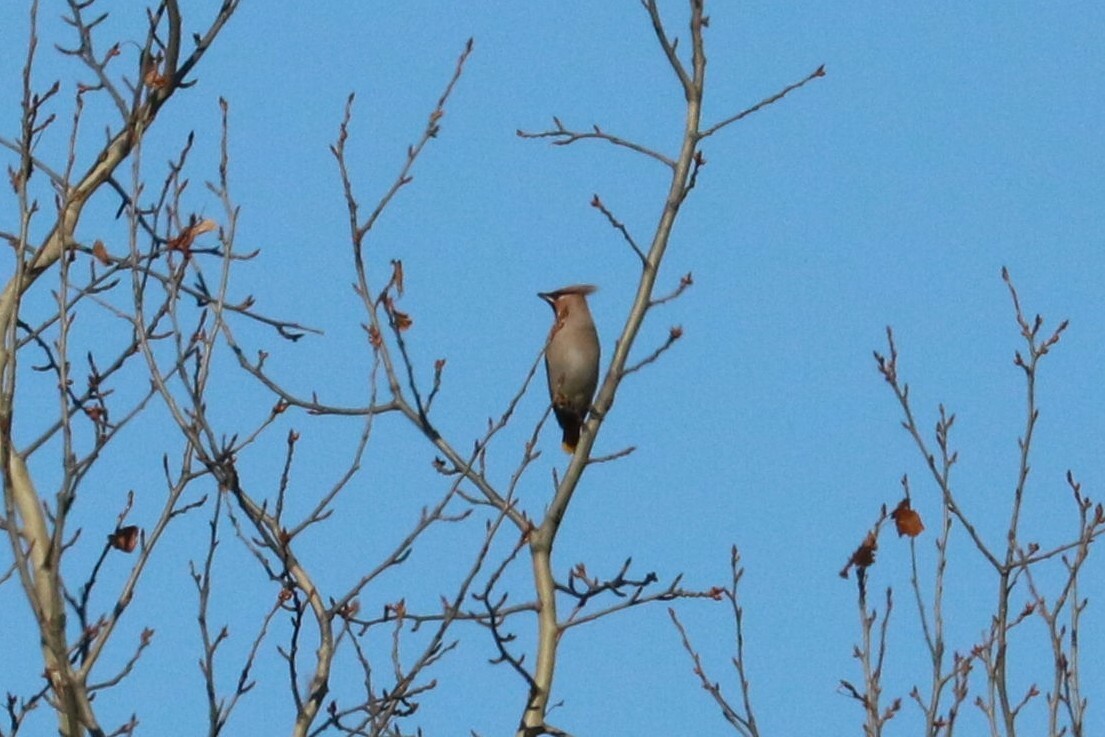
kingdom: Animalia
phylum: Chordata
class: Aves
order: Passeriformes
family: Bombycillidae
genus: Bombycilla
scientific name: Bombycilla garrulus
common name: Bohemian waxwing
